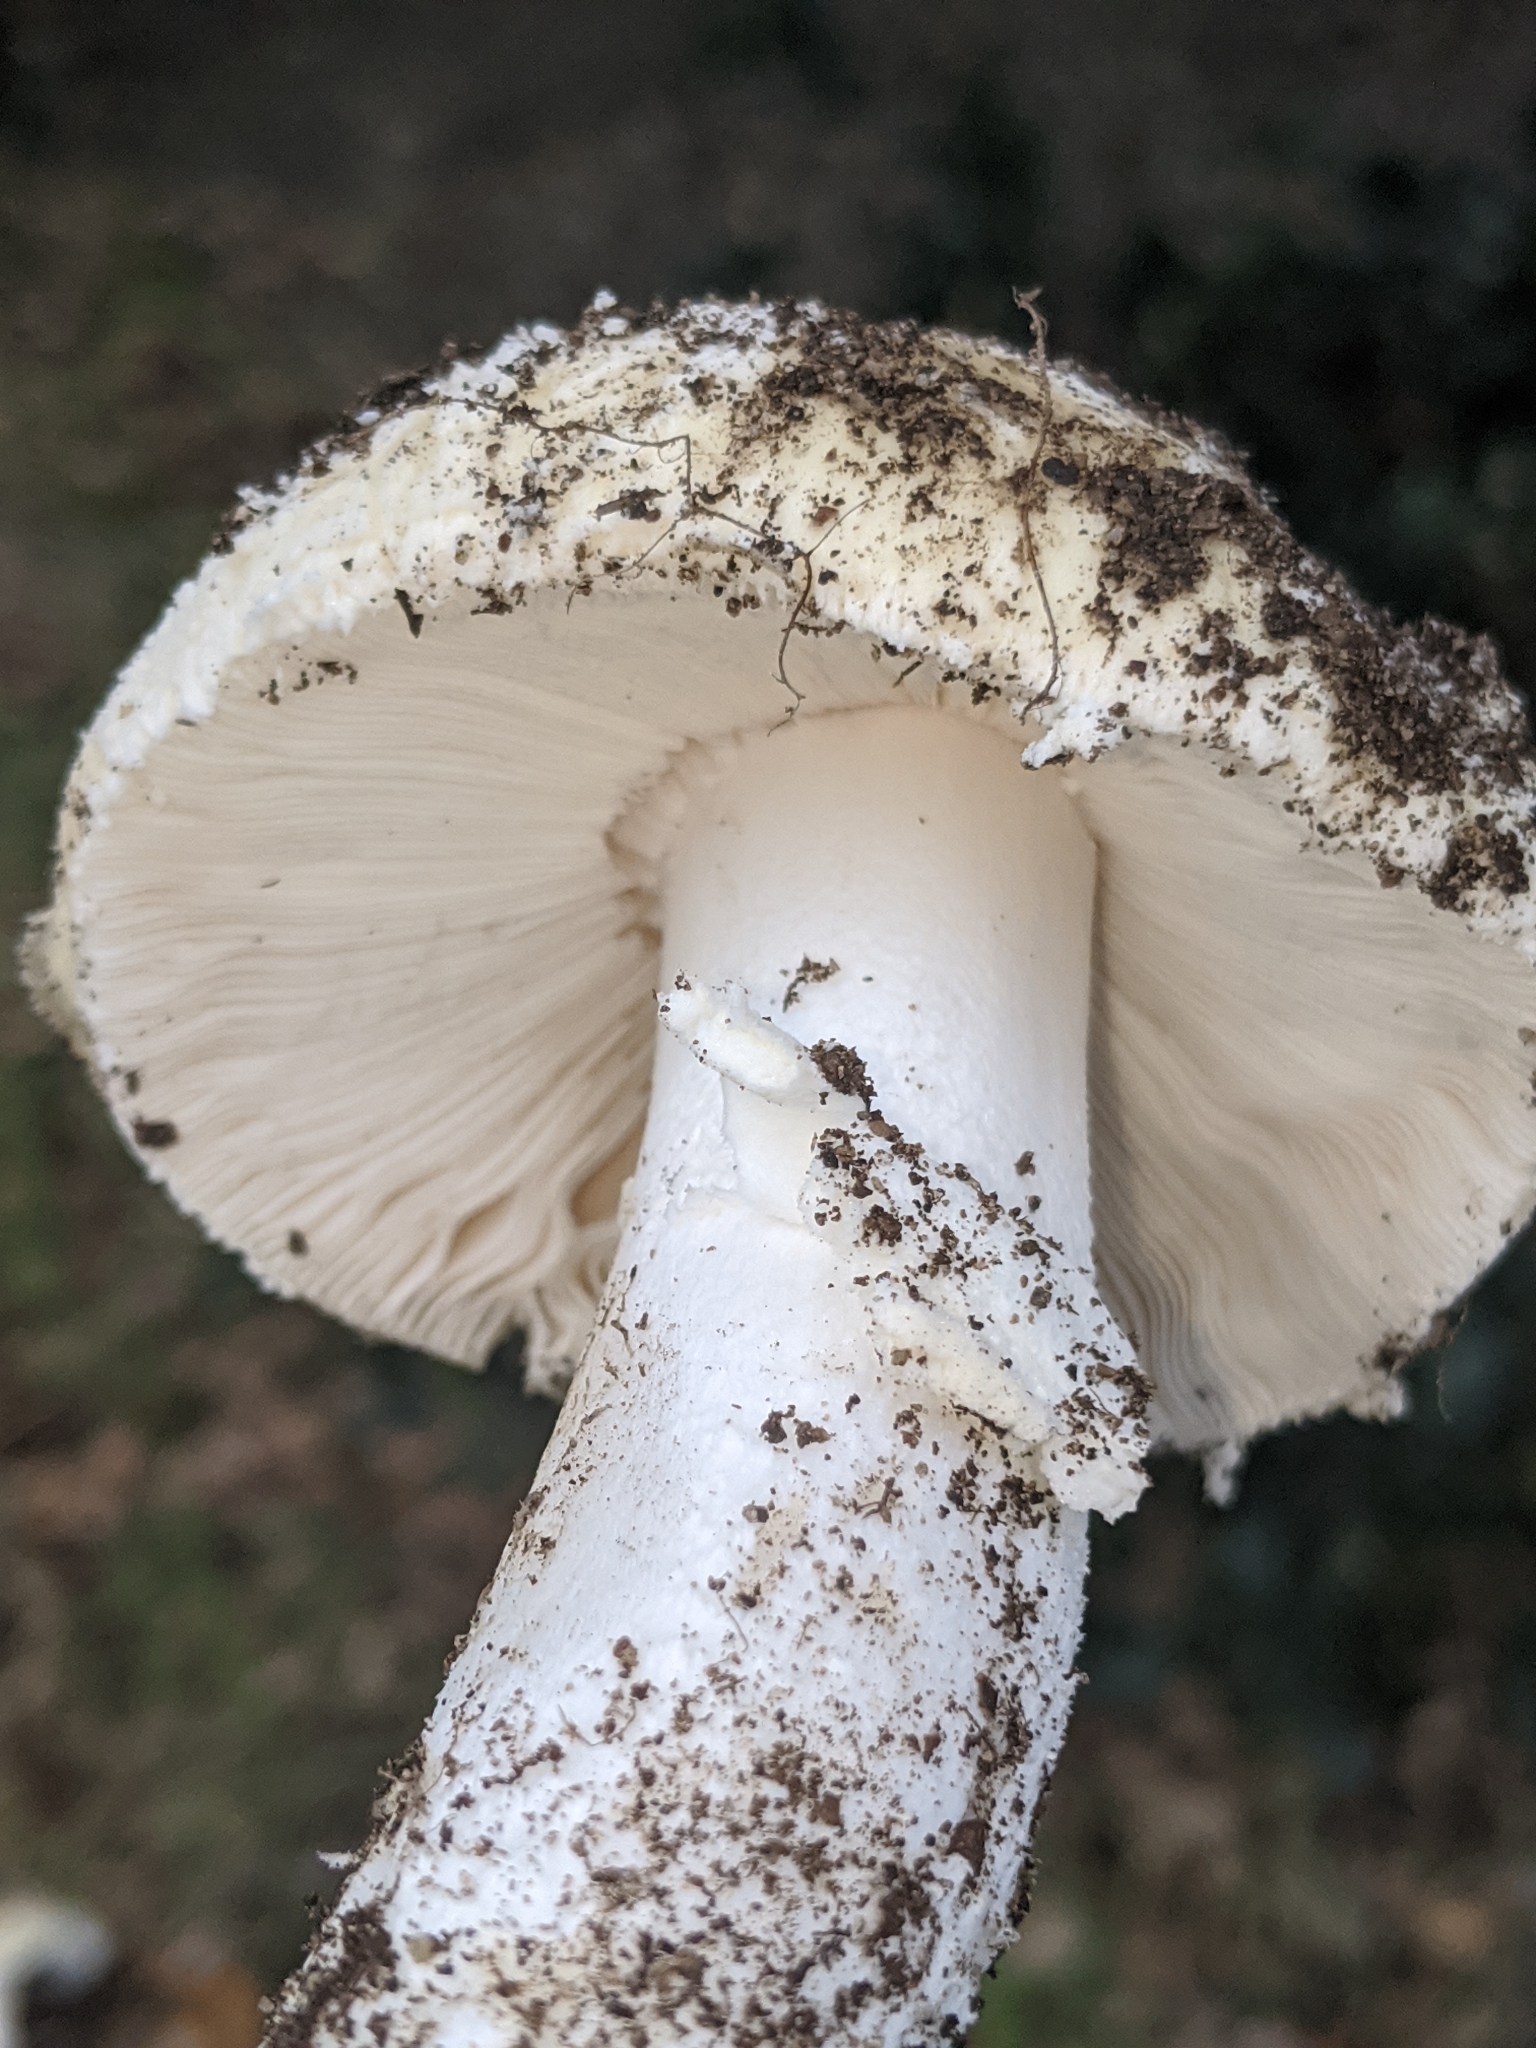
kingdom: Fungi
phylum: Basidiomycota
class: Agaricomycetes
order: Agaricales
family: Amanitaceae
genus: Amanita
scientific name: Amanita pantherina
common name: Panthercap
